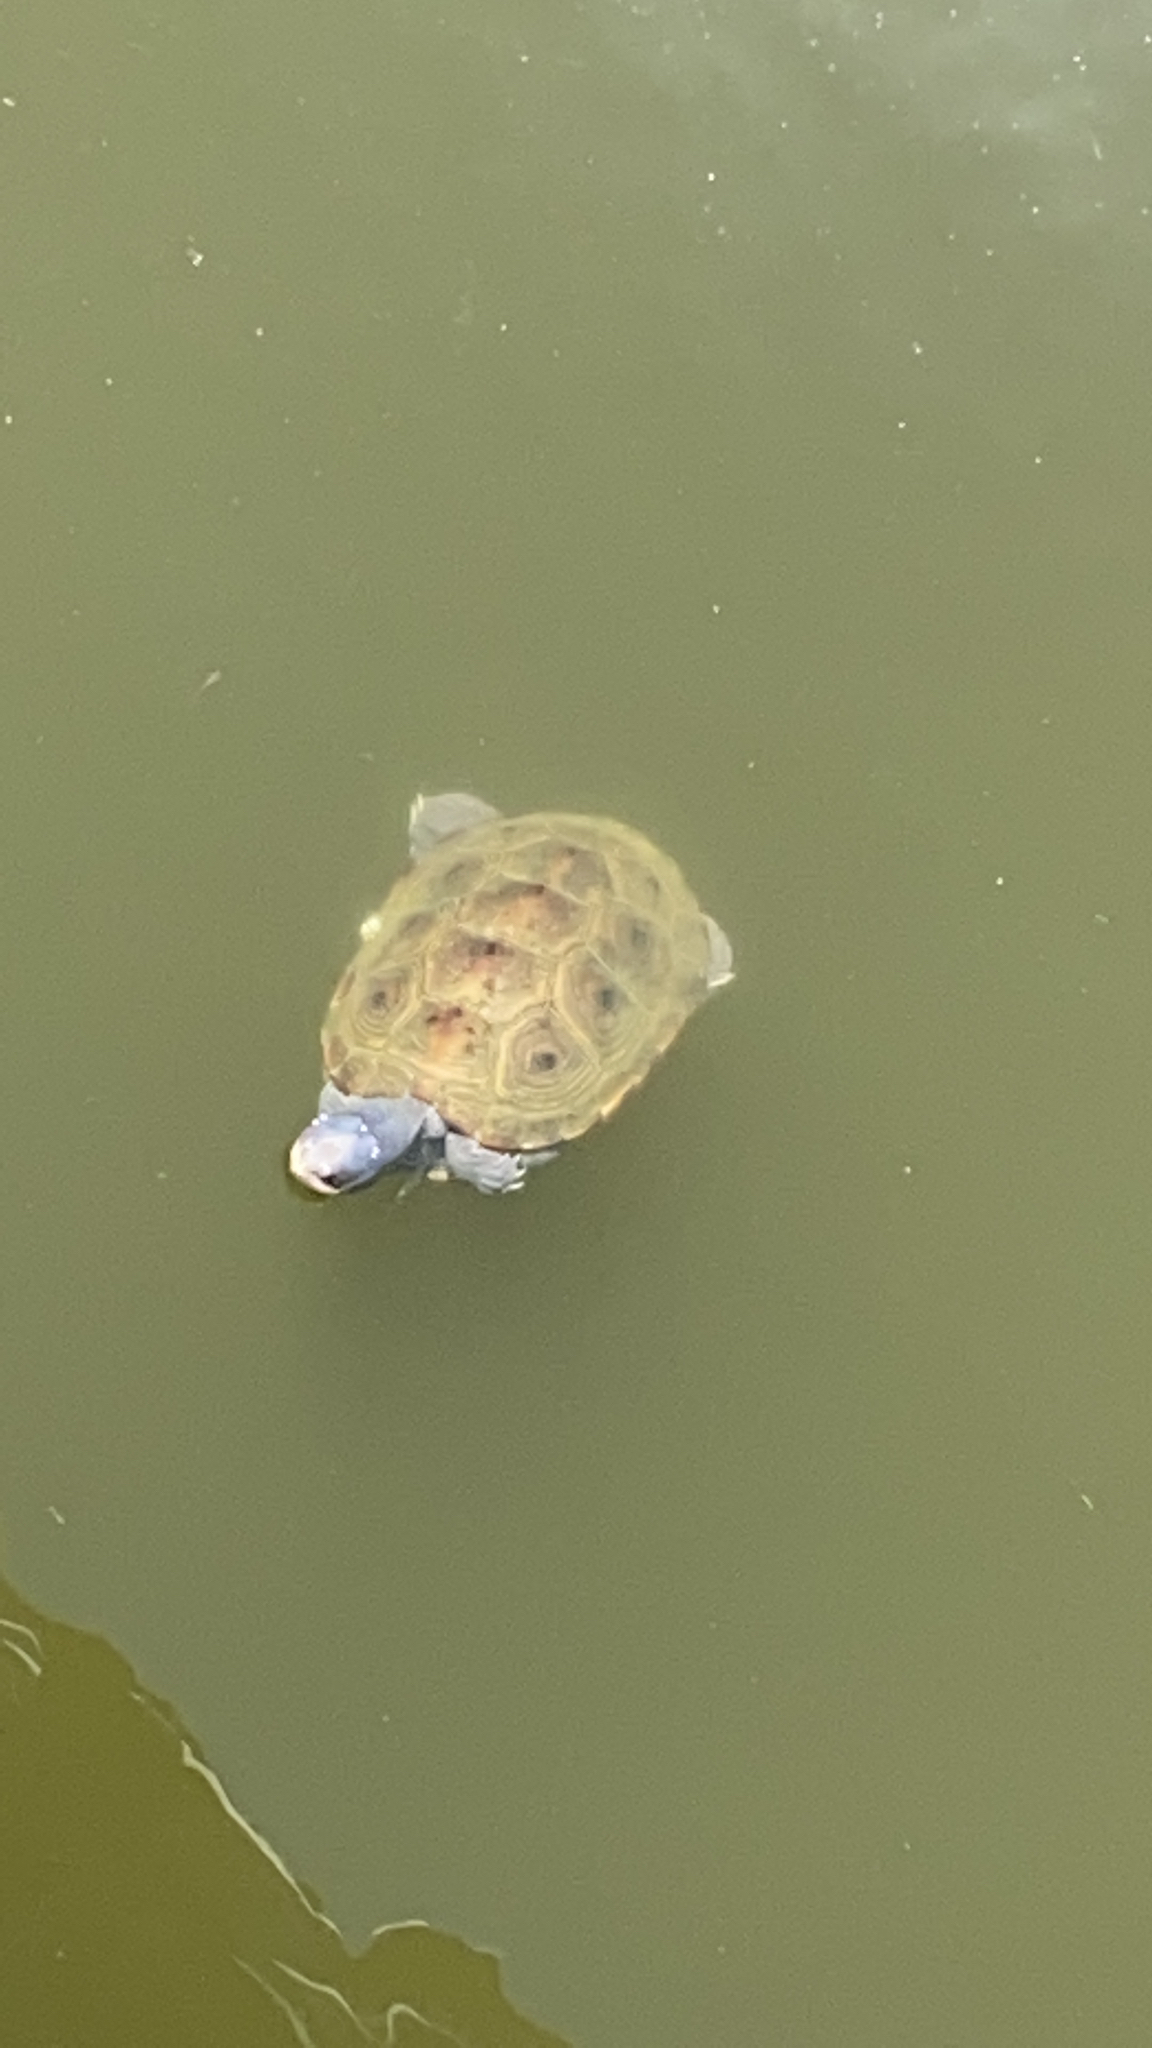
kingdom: Animalia
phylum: Chordata
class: Testudines
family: Emydidae
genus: Malaclemys
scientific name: Malaclemys terrapin
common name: Diamondback terrapin
